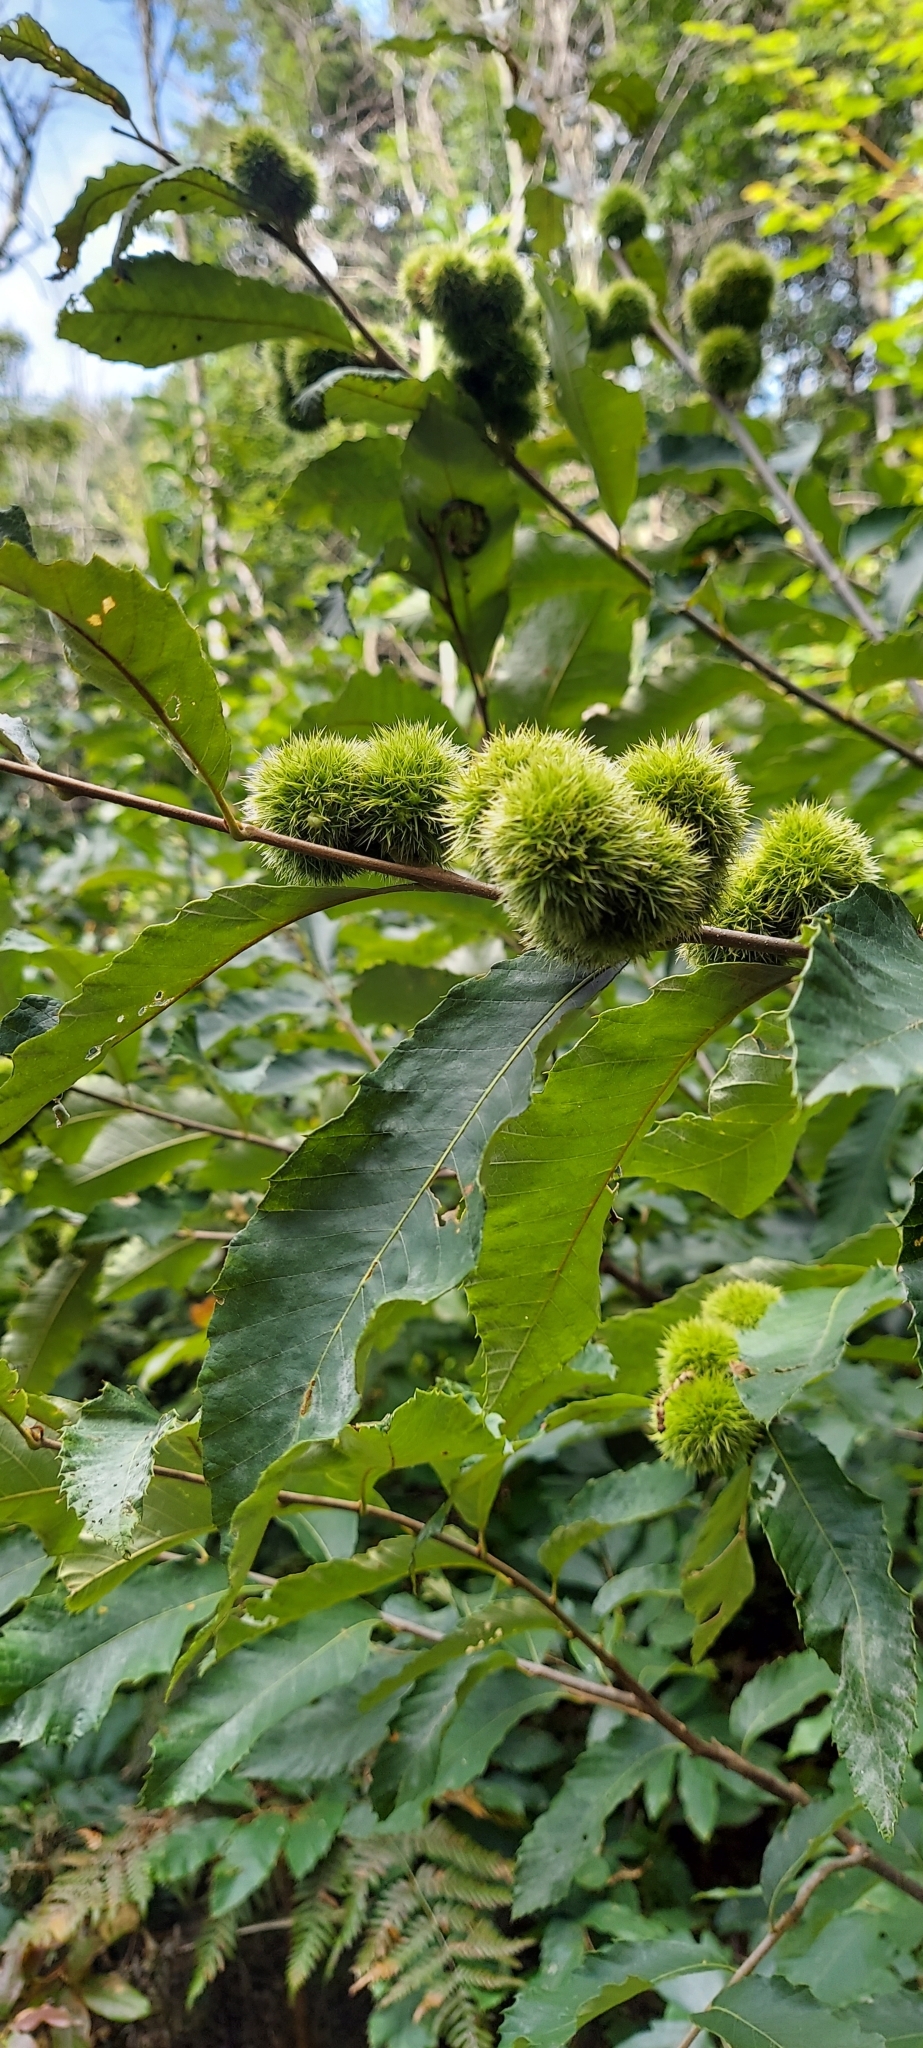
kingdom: Plantae
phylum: Tracheophyta
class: Magnoliopsida
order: Fagales
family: Fagaceae
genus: Castanea
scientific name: Castanea pumila
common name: Chinkapin
